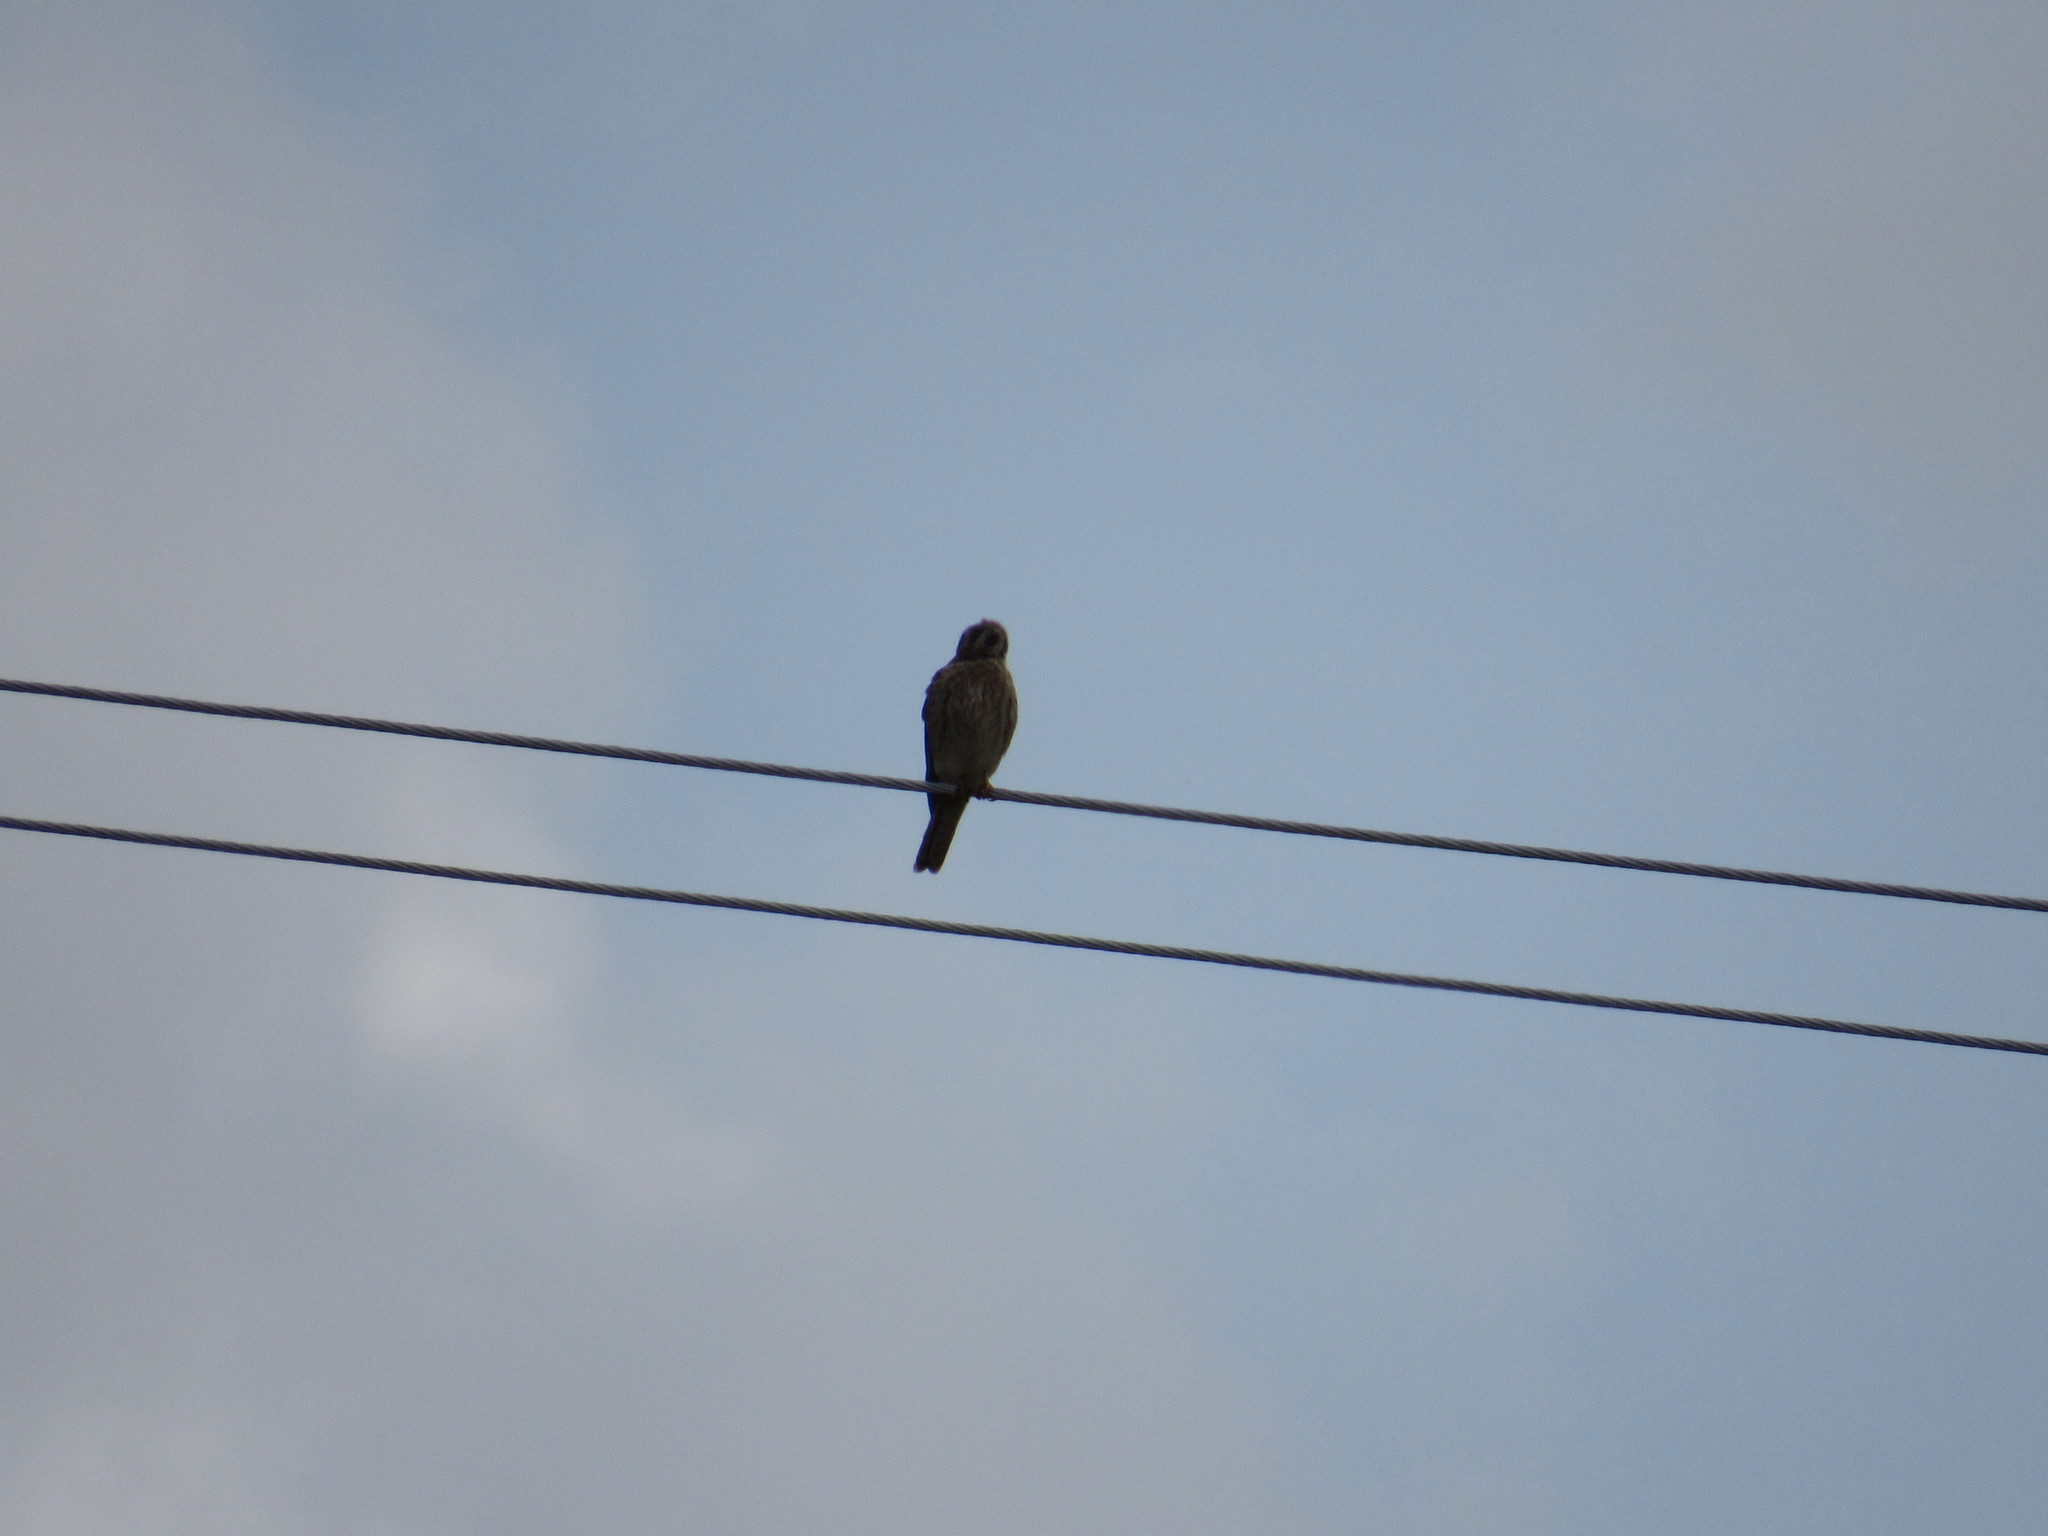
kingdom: Animalia
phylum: Chordata
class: Aves
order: Falconiformes
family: Falconidae
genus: Falco
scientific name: Falco sparverius
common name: American kestrel
